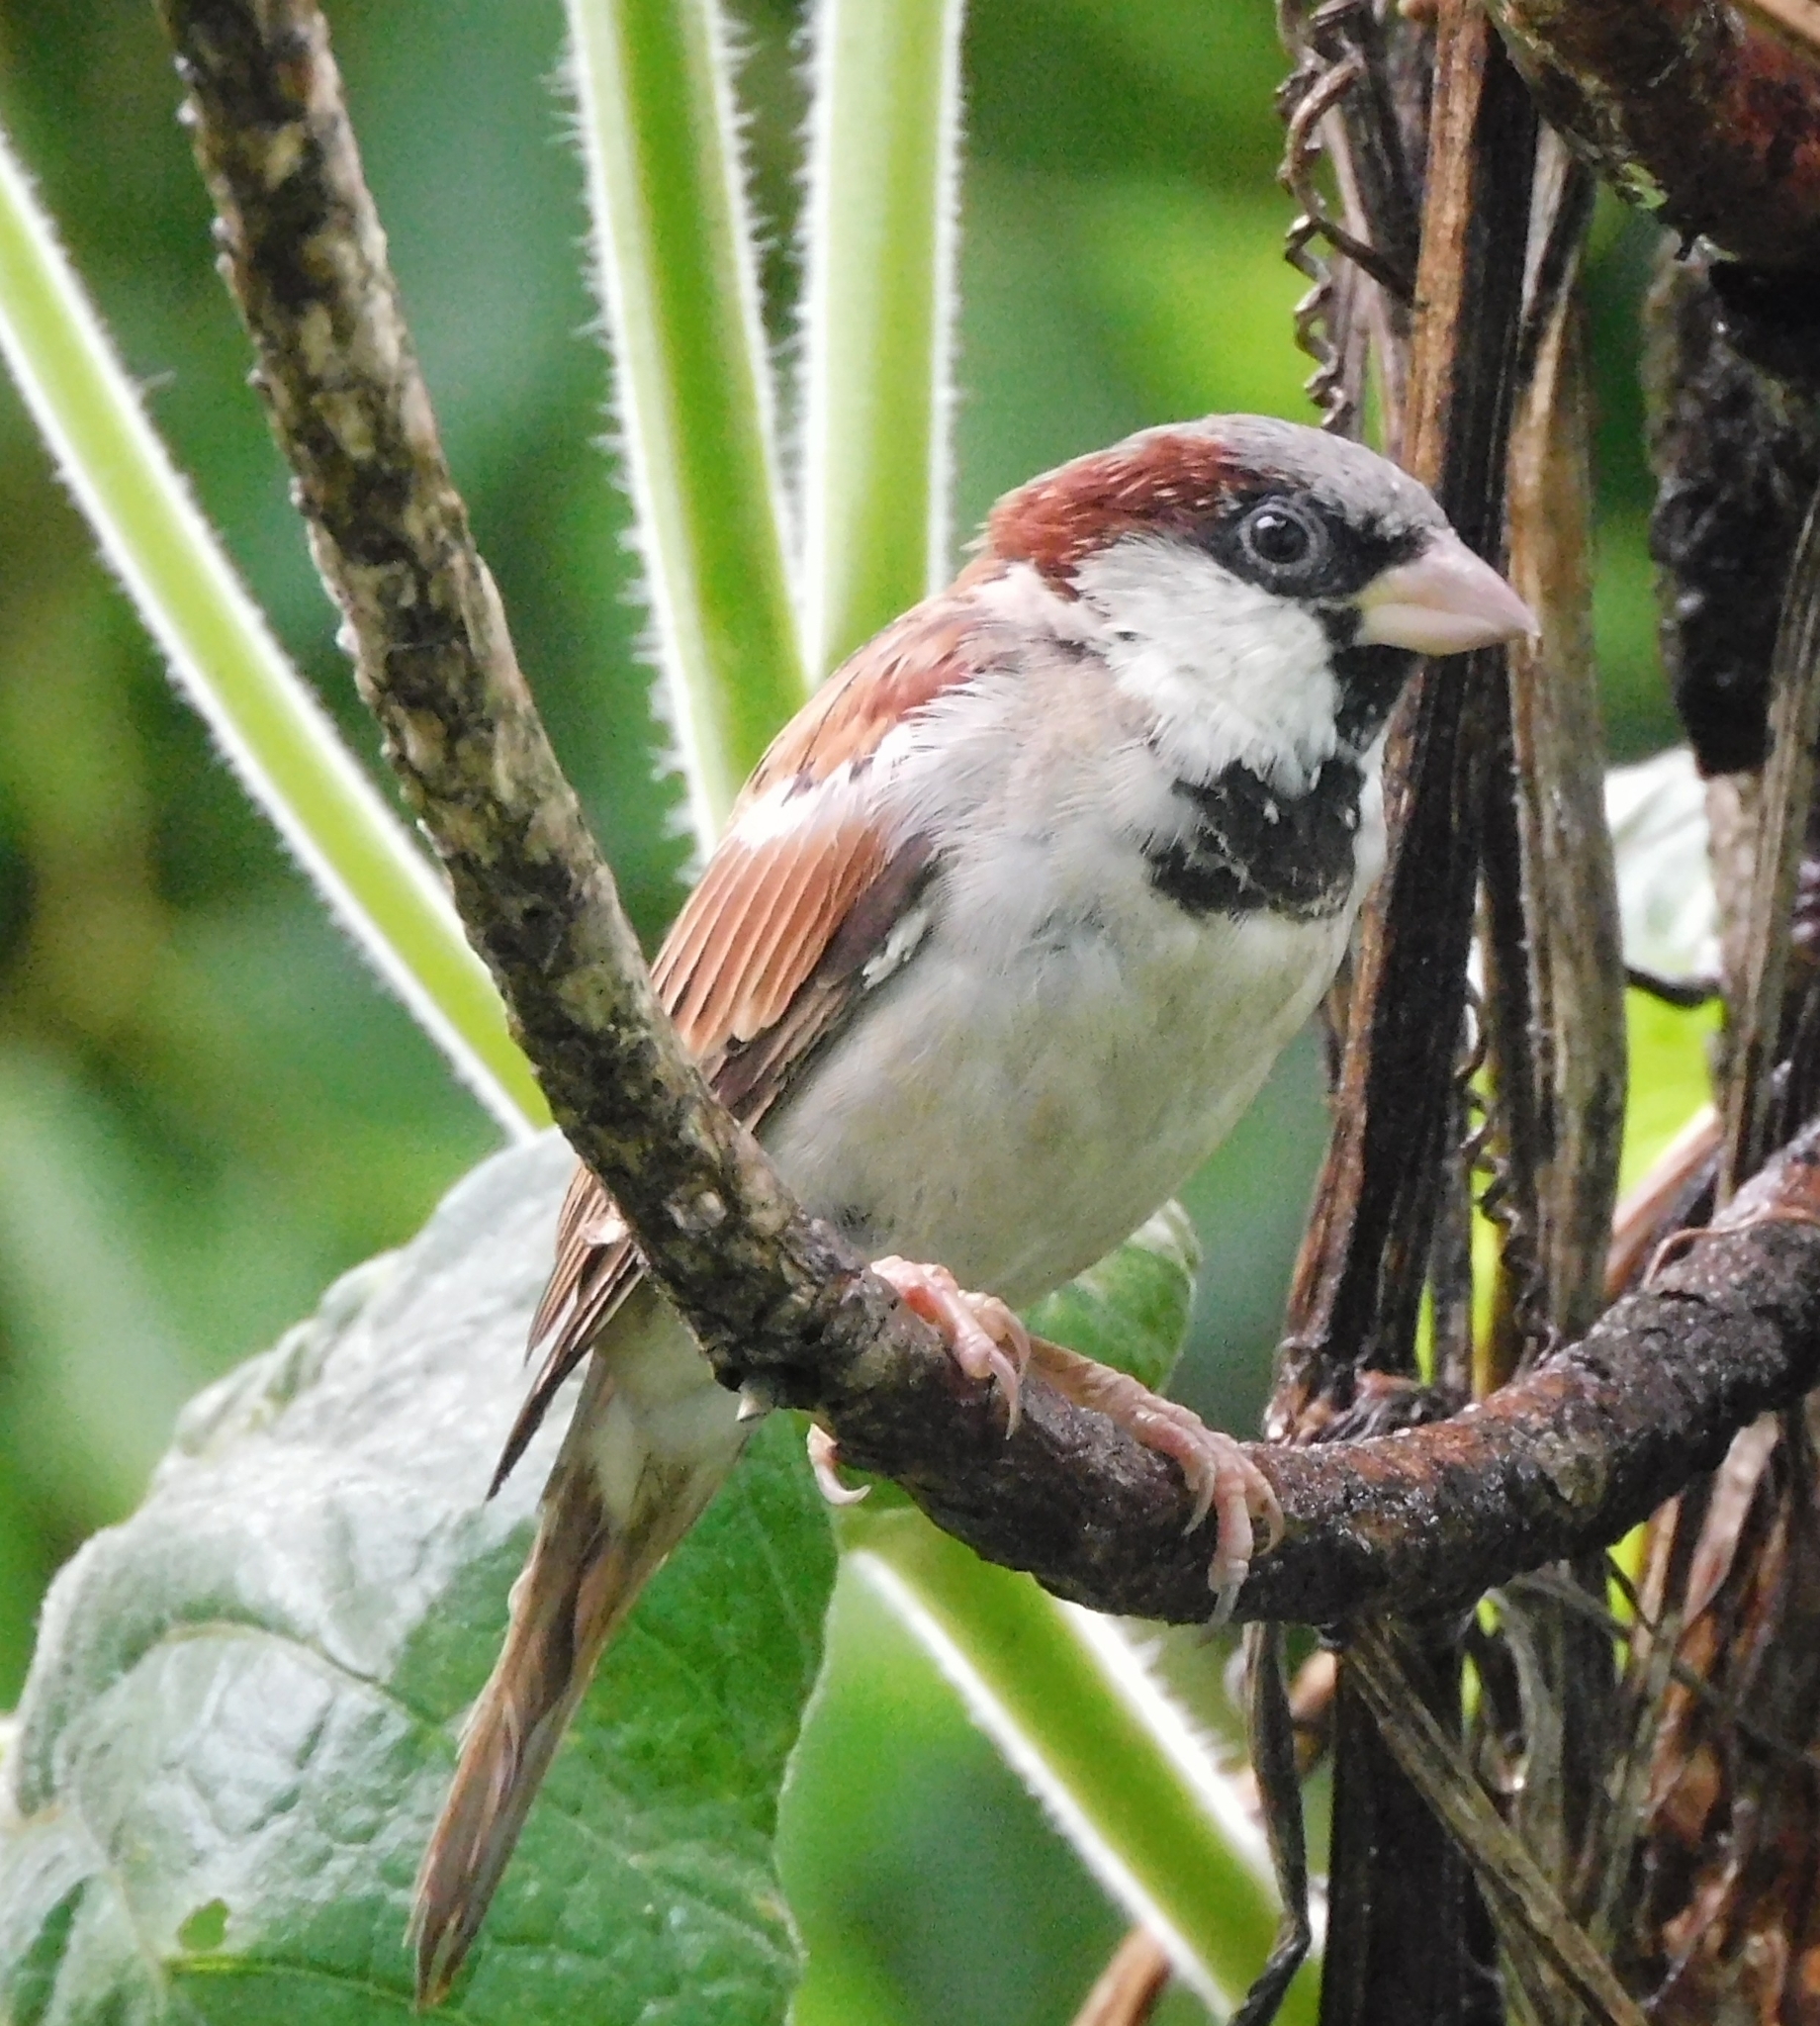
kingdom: Animalia
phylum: Chordata
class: Aves
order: Passeriformes
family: Passeridae
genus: Passer
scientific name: Passer domesticus
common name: House sparrow
